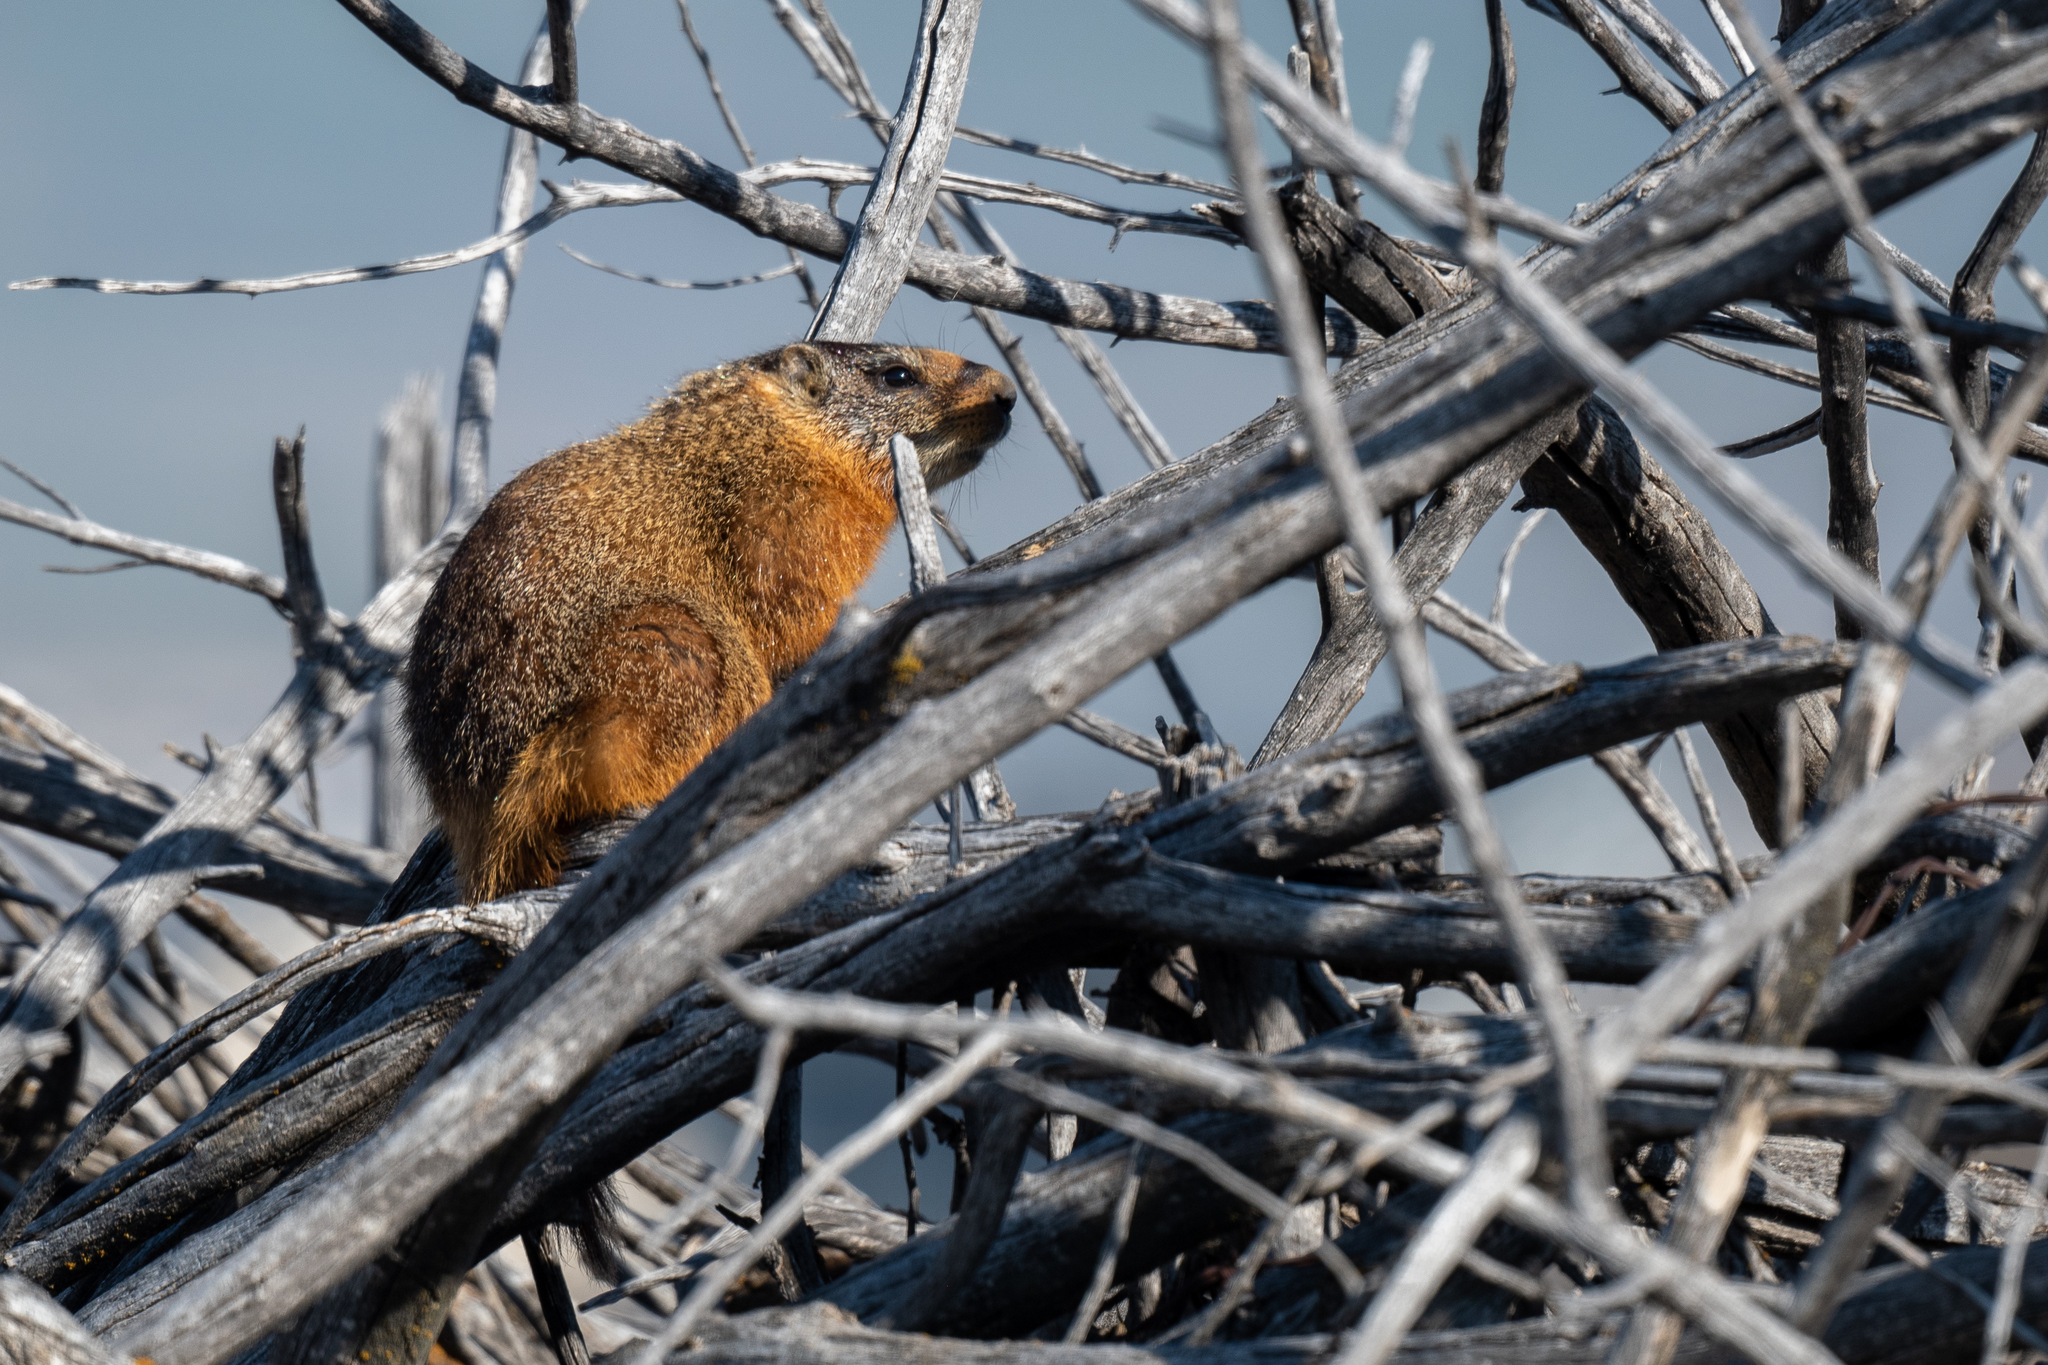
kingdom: Animalia
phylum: Chordata
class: Mammalia
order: Rodentia
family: Sciuridae
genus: Marmota
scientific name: Marmota flaviventris
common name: Yellow-bellied marmot
